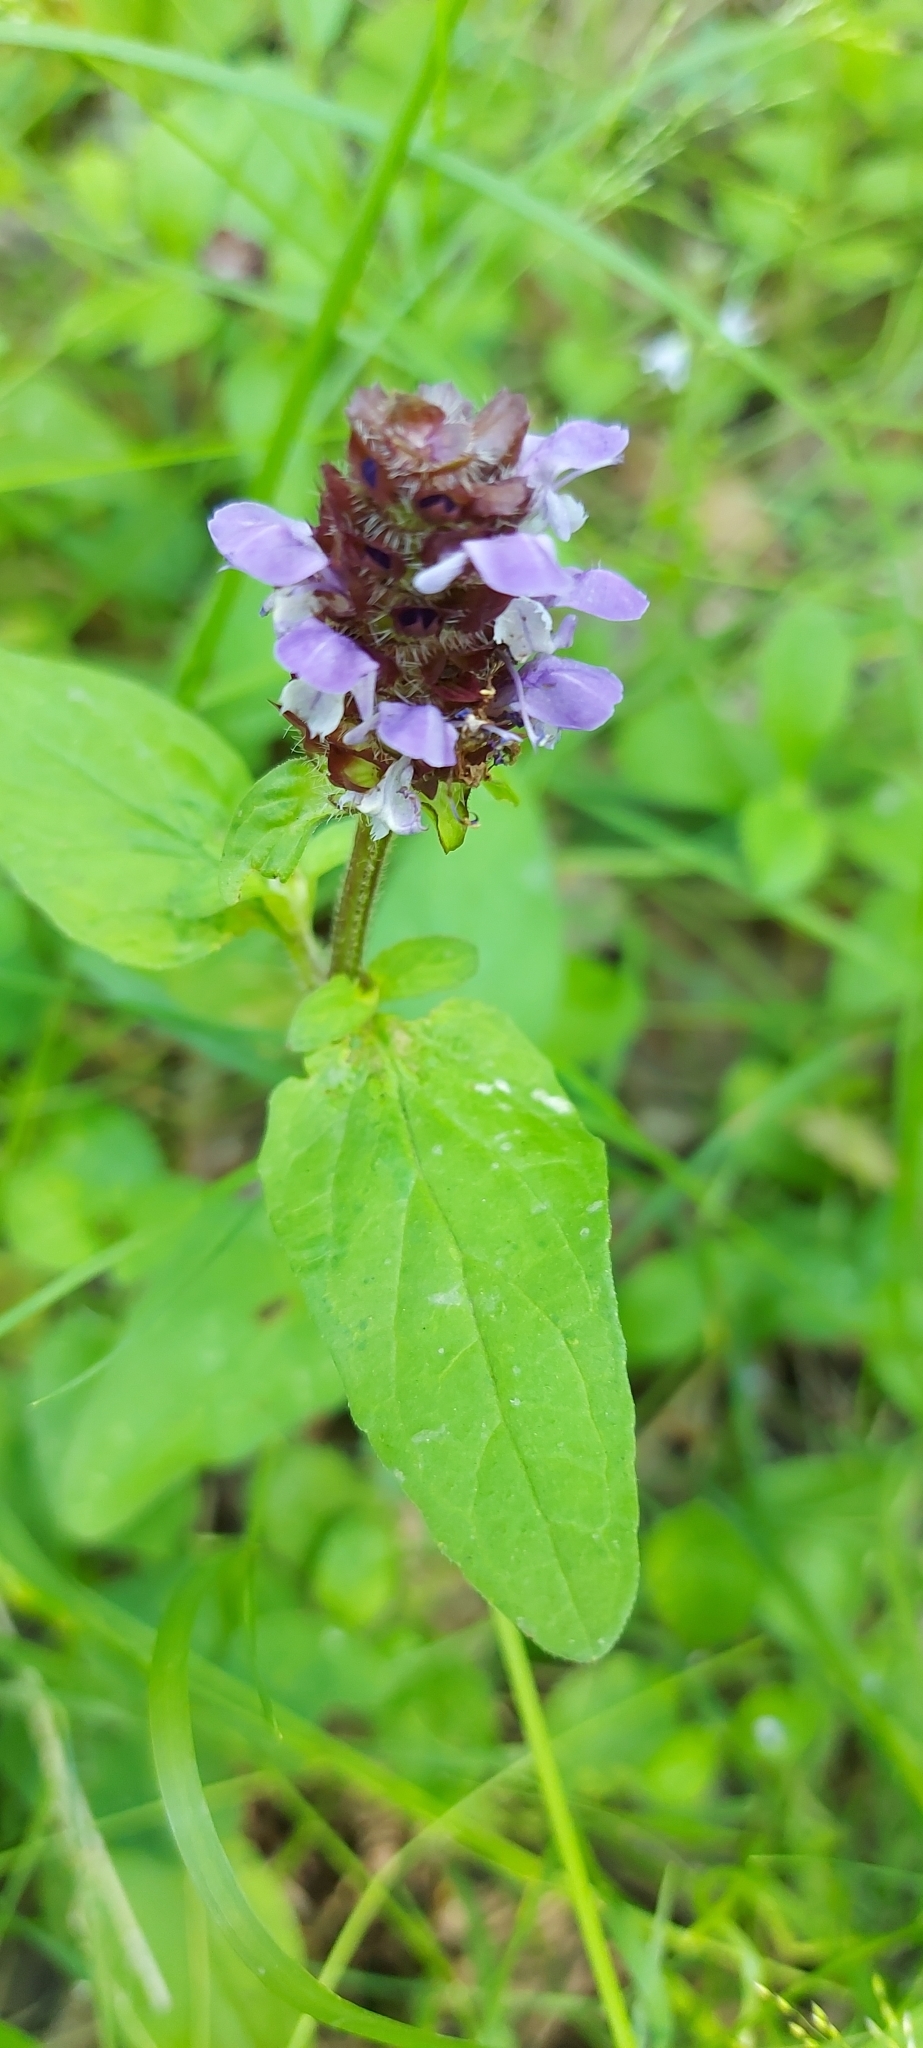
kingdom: Plantae
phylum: Tracheophyta
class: Magnoliopsida
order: Lamiales
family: Lamiaceae
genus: Prunella
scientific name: Prunella vulgaris
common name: Heal-all
